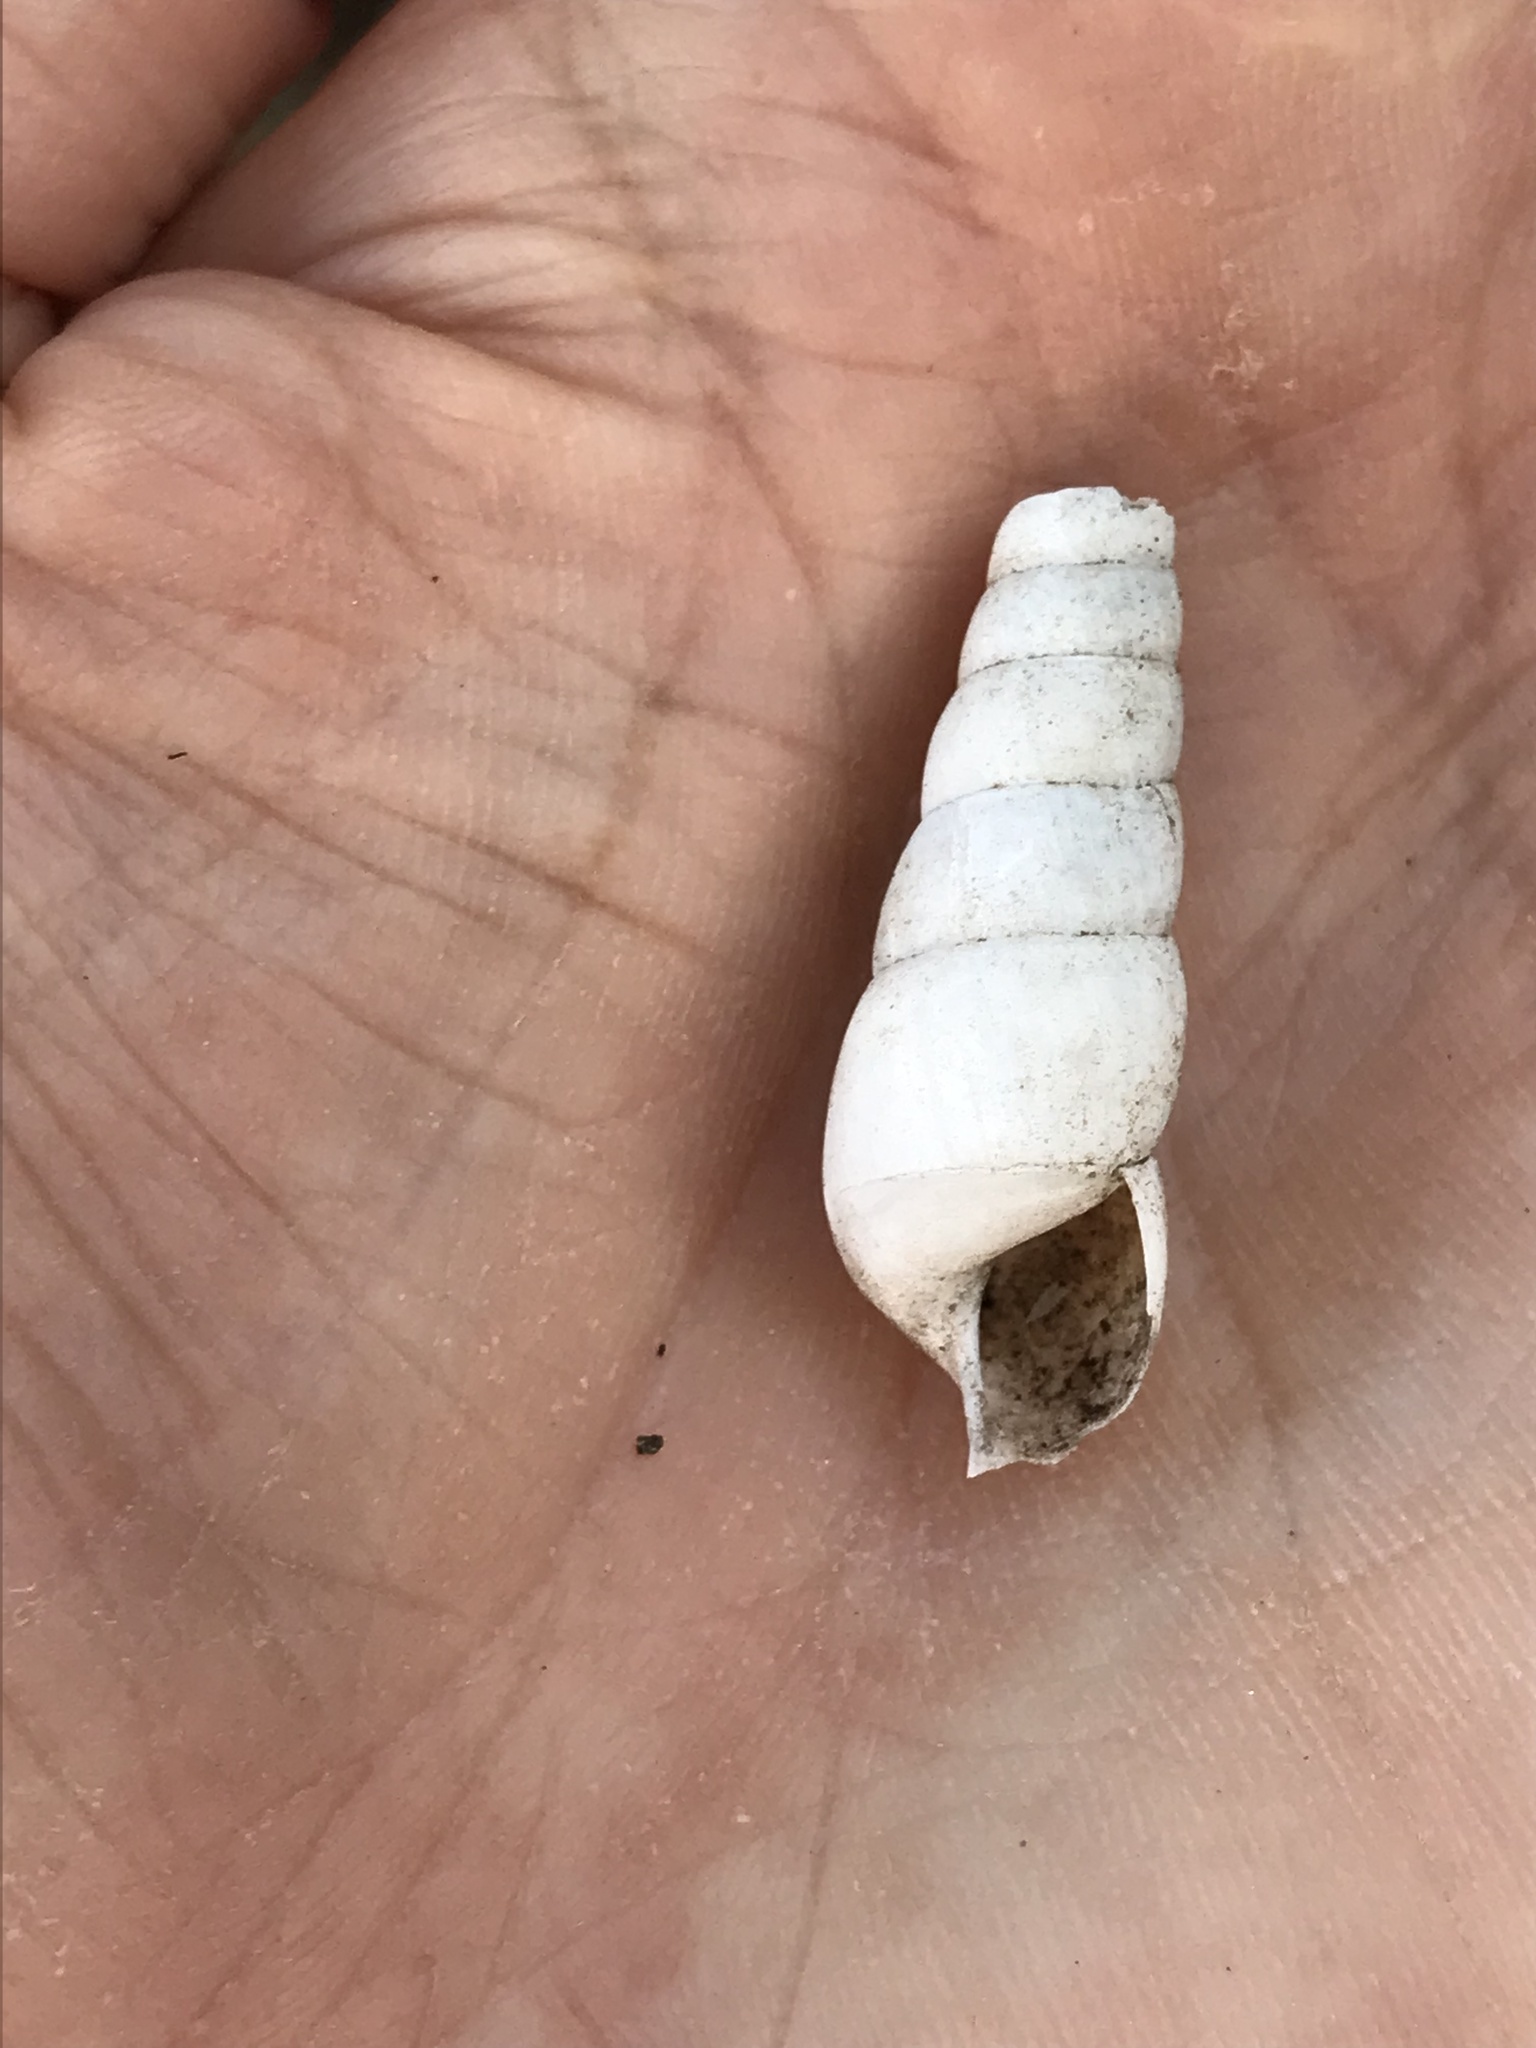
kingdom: Animalia
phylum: Mollusca
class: Gastropoda
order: Stylommatophora
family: Achatinidae
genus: Rumina
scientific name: Rumina decollata
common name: Decollate snail
